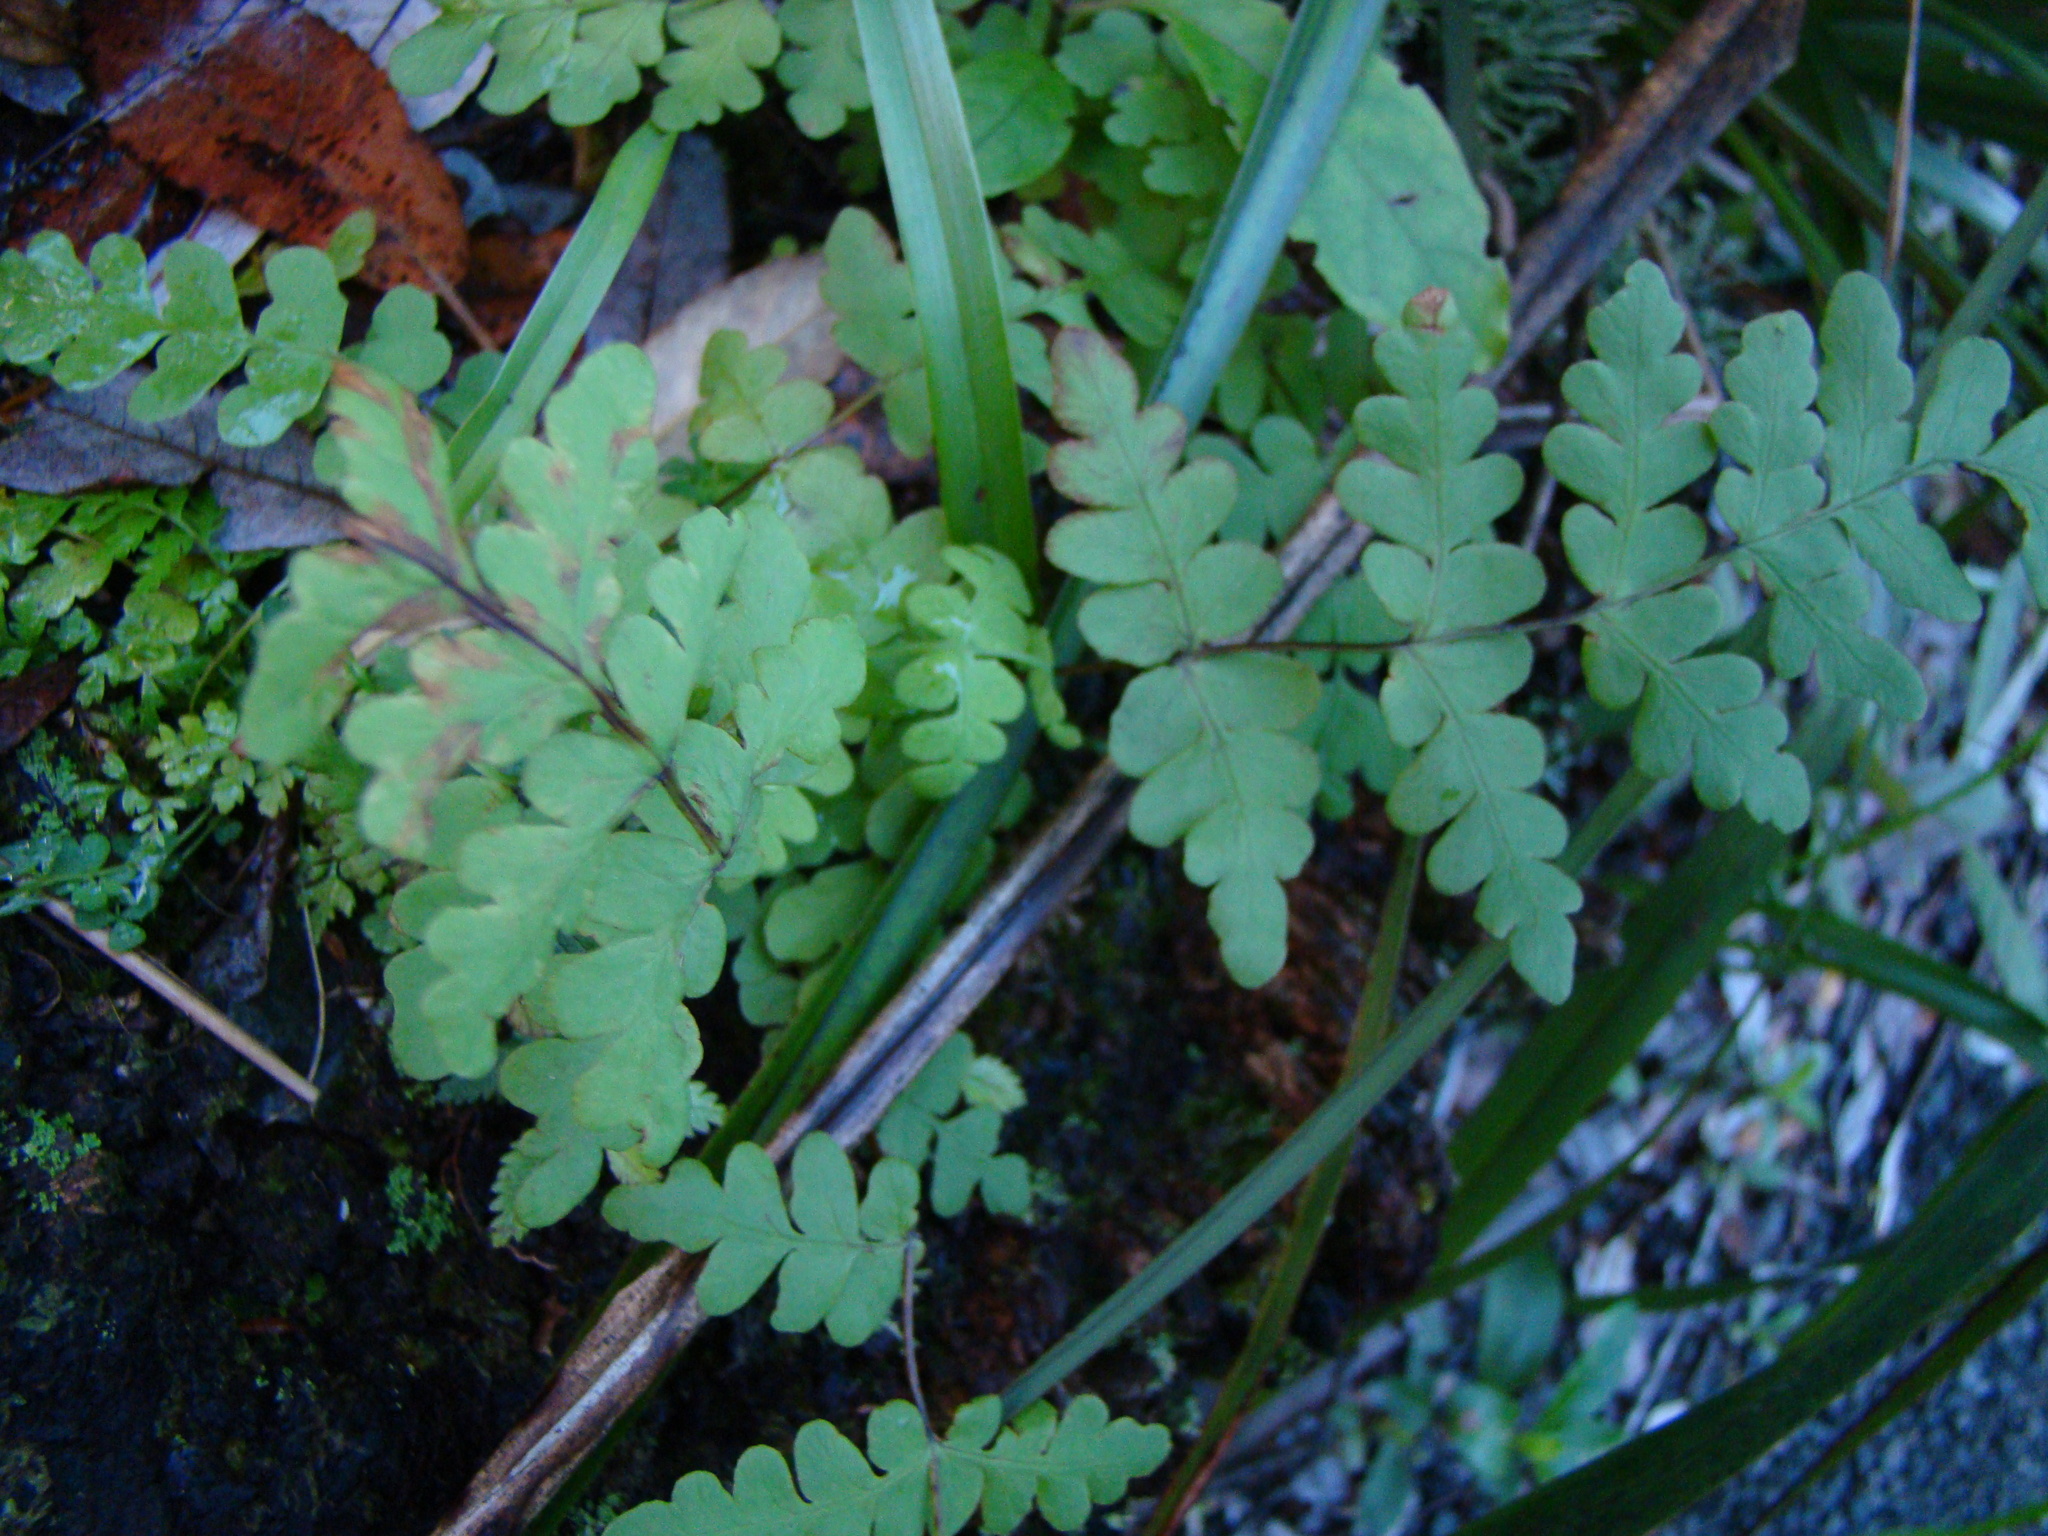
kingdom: Plantae
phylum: Tracheophyta
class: Polypodiopsida
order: Polypodiales
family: Dennstaedtiaceae
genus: Histiopteris
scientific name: Histiopteris incisa
